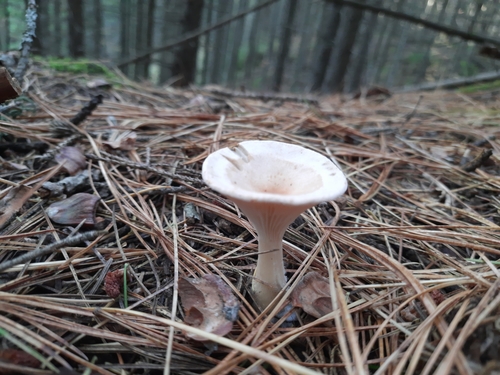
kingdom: Fungi
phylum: Basidiomycota
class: Agaricomycetes
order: Agaricales
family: Tricholomataceae
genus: Infundibulicybe
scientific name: Infundibulicybe gibba
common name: Common funnel
